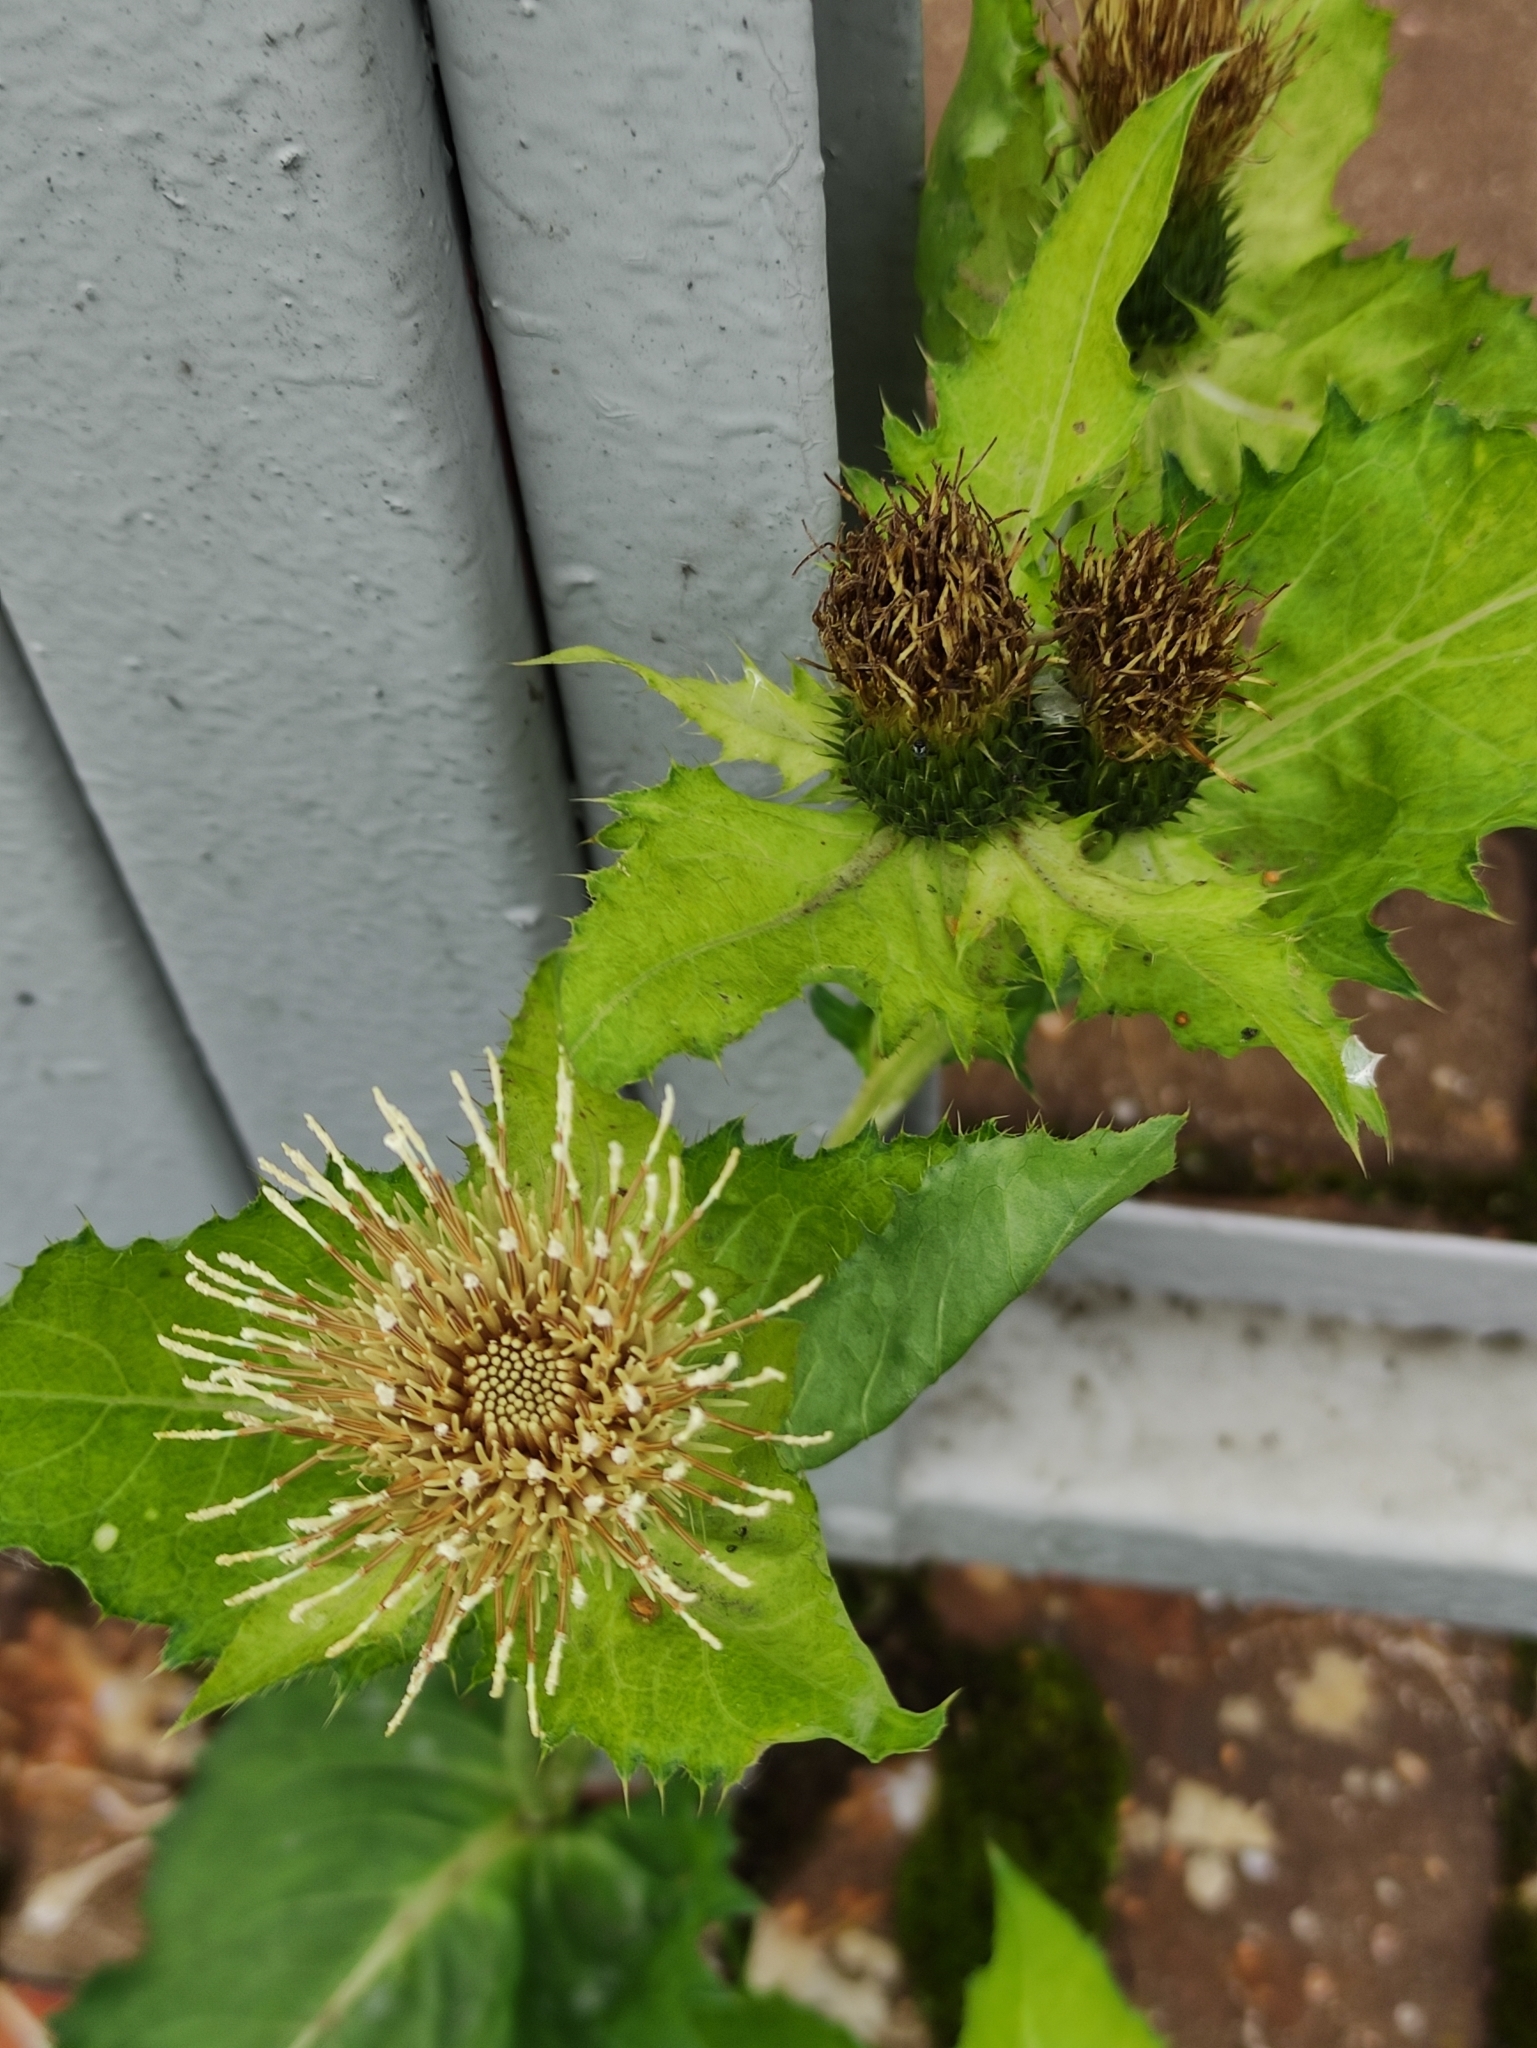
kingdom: Plantae
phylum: Tracheophyta
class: Magnoliopsida
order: Asterales
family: Asteraceae
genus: Cirsium
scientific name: Cirsium oleraceum
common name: Cabbage thistle
